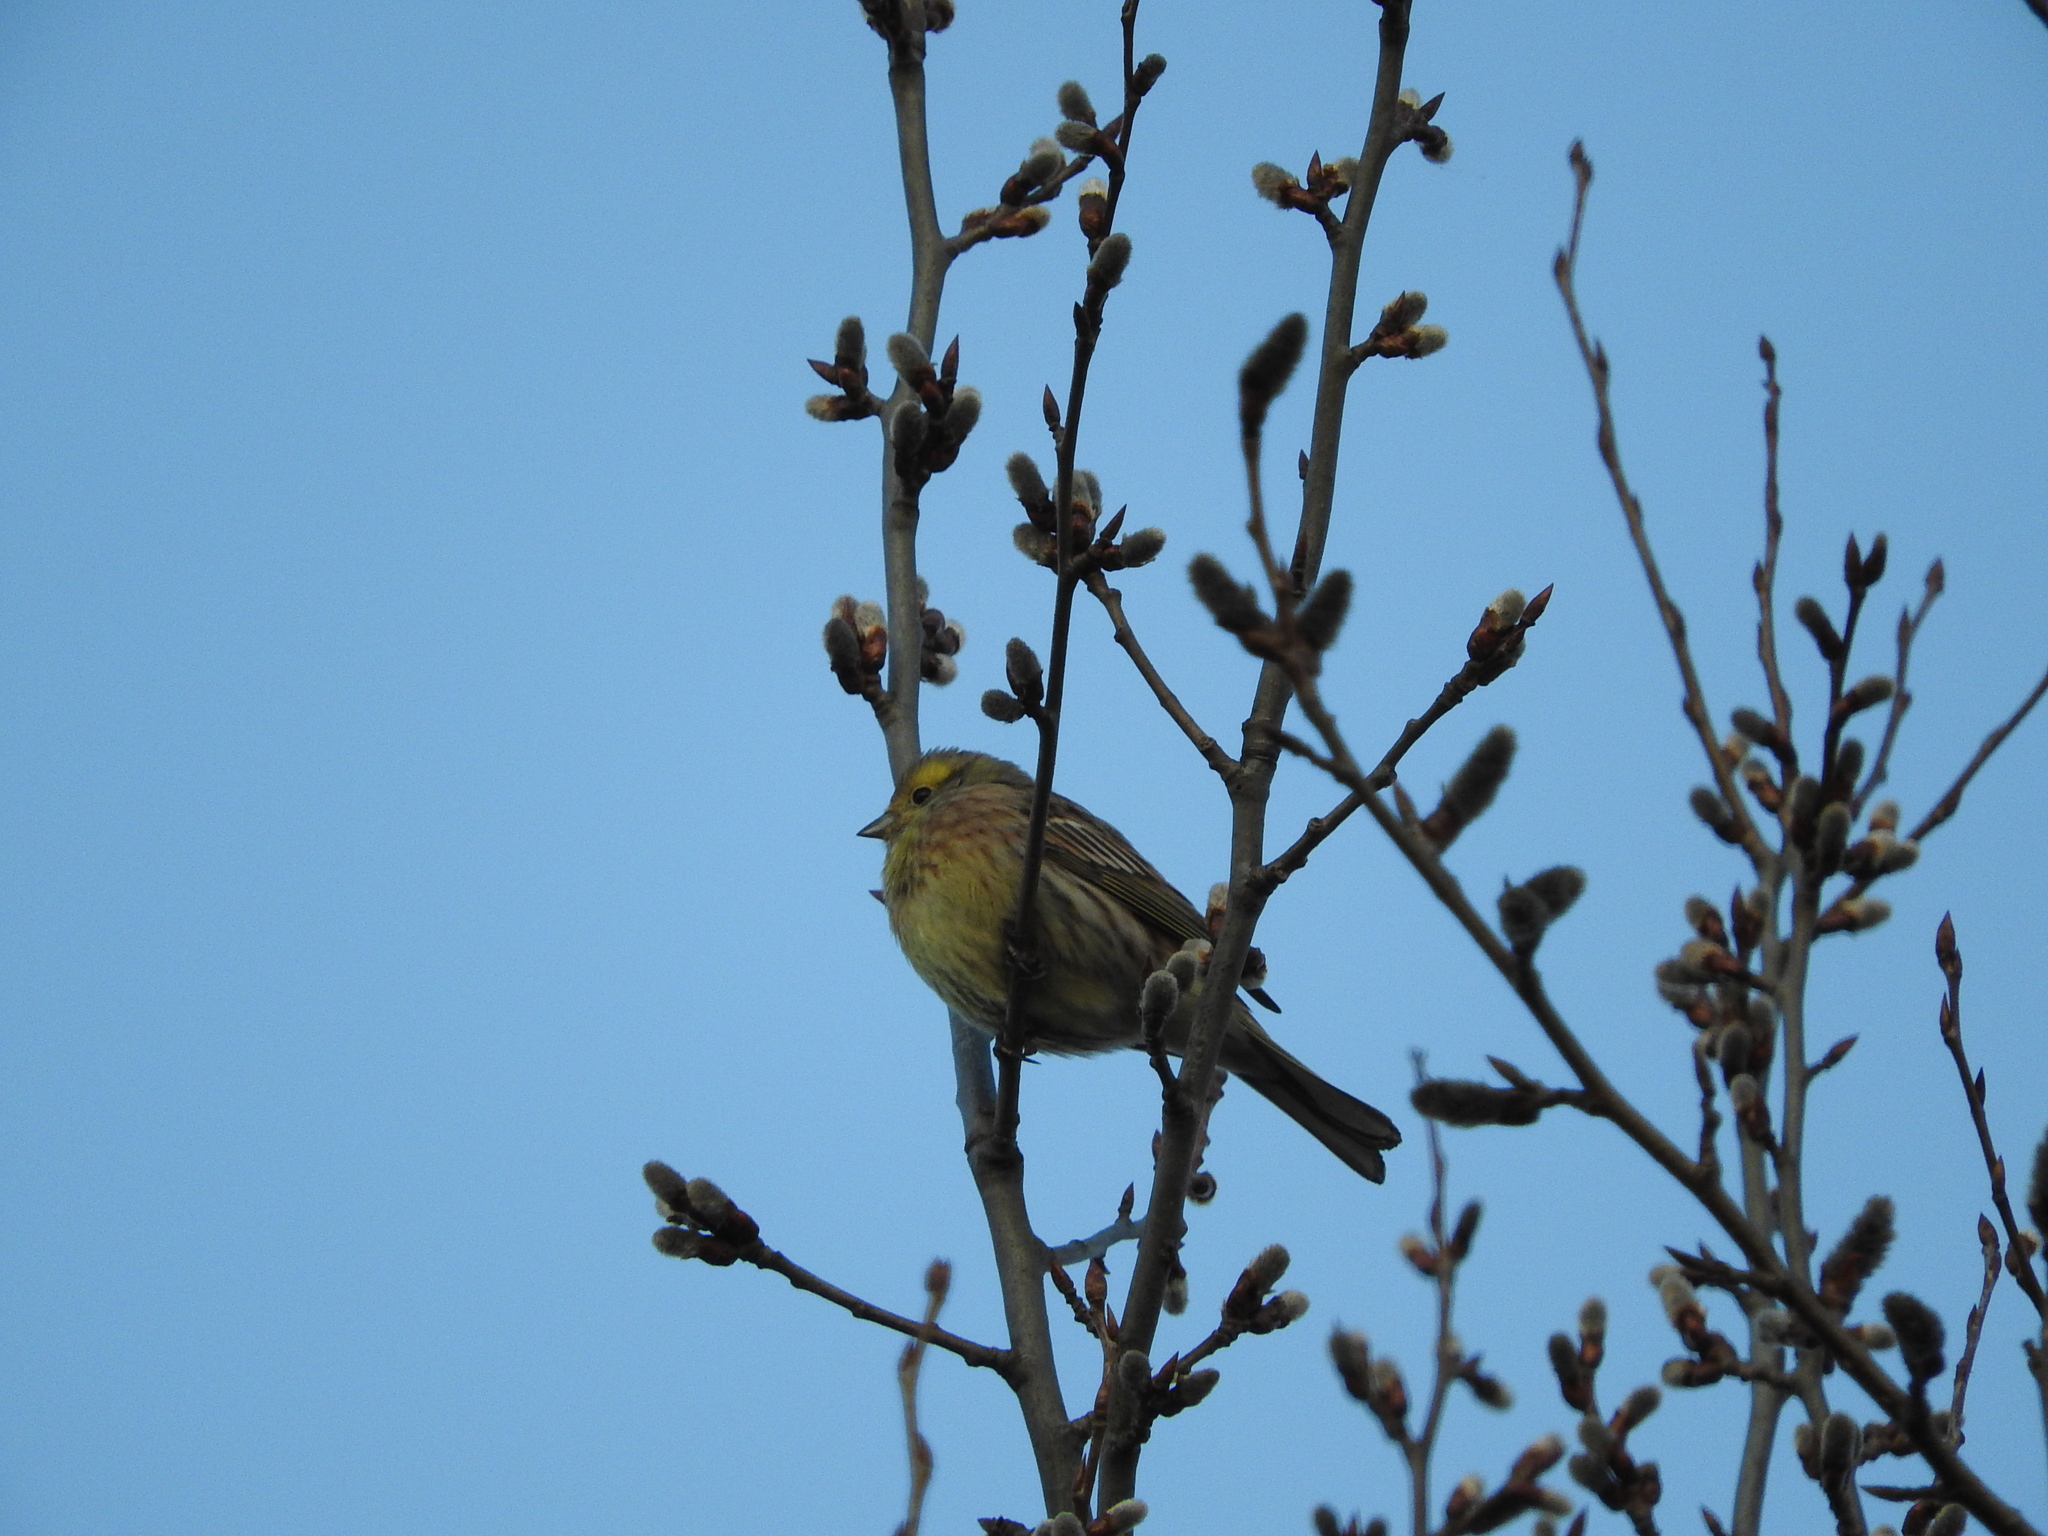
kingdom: Animalia
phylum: Chordata
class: Aves
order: Passeriformes
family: Emberizidae
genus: Emberiza
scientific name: Emberiza citrinella
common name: Yellowhammer
